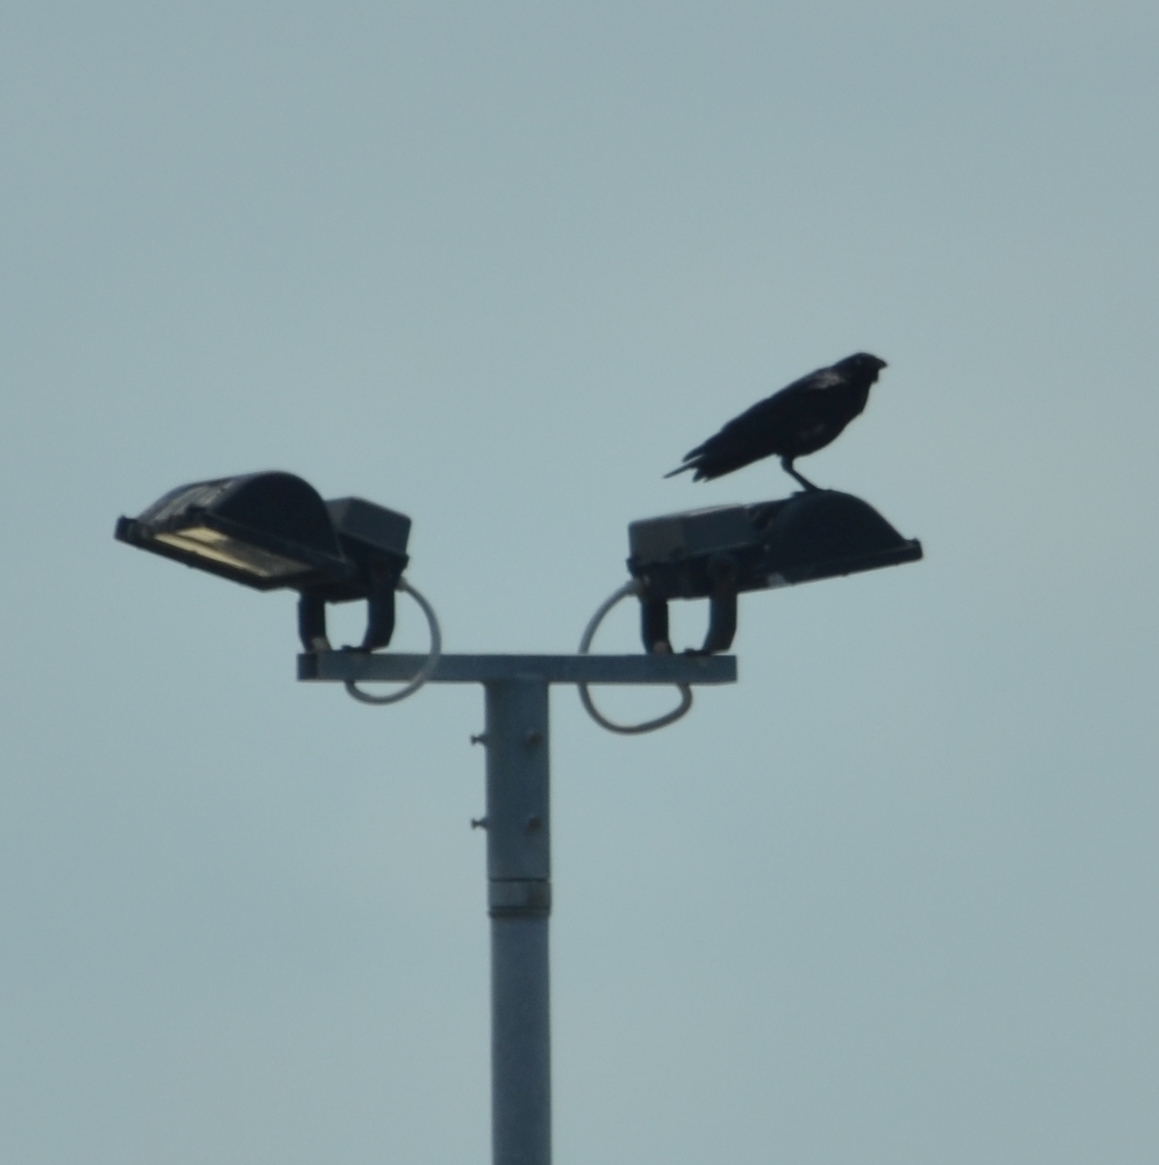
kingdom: Animalia
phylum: Chordata
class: Aves
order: Passeriformes
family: Corvidae
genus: Corvus
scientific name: Corvus orru
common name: Torresian crow
